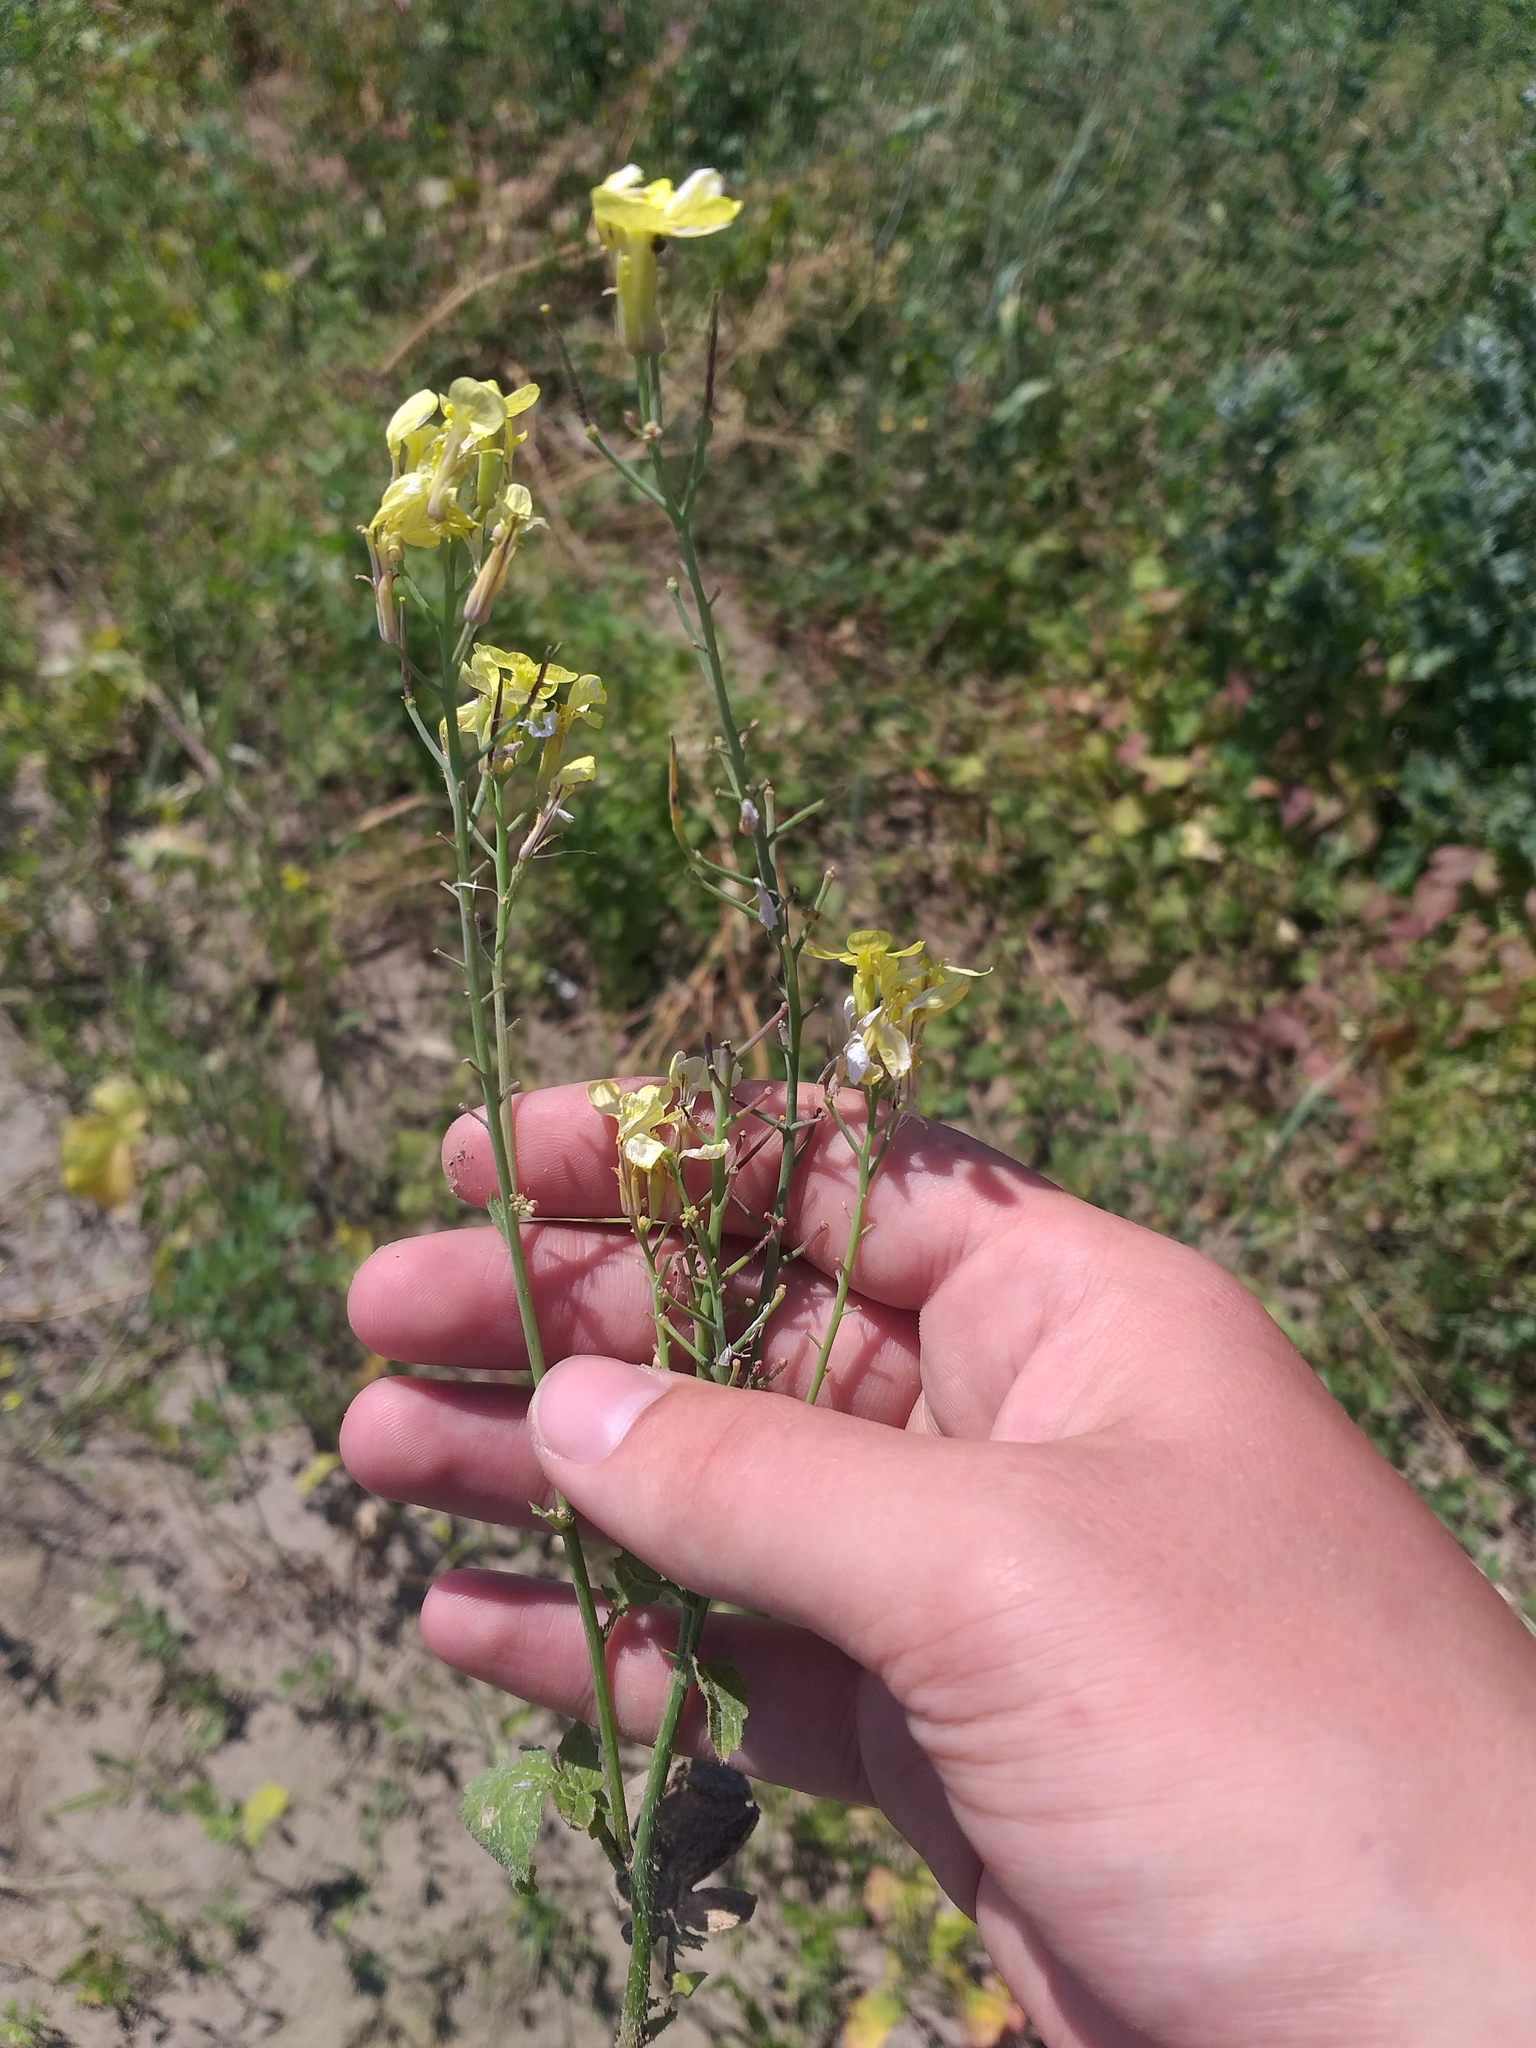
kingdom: Plantae
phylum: Tracheophyta
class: Magnoliopsida
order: Brassicales
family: Brassicaceae
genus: Raphanus
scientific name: Raphanus raphanistrum
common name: Wild radish
